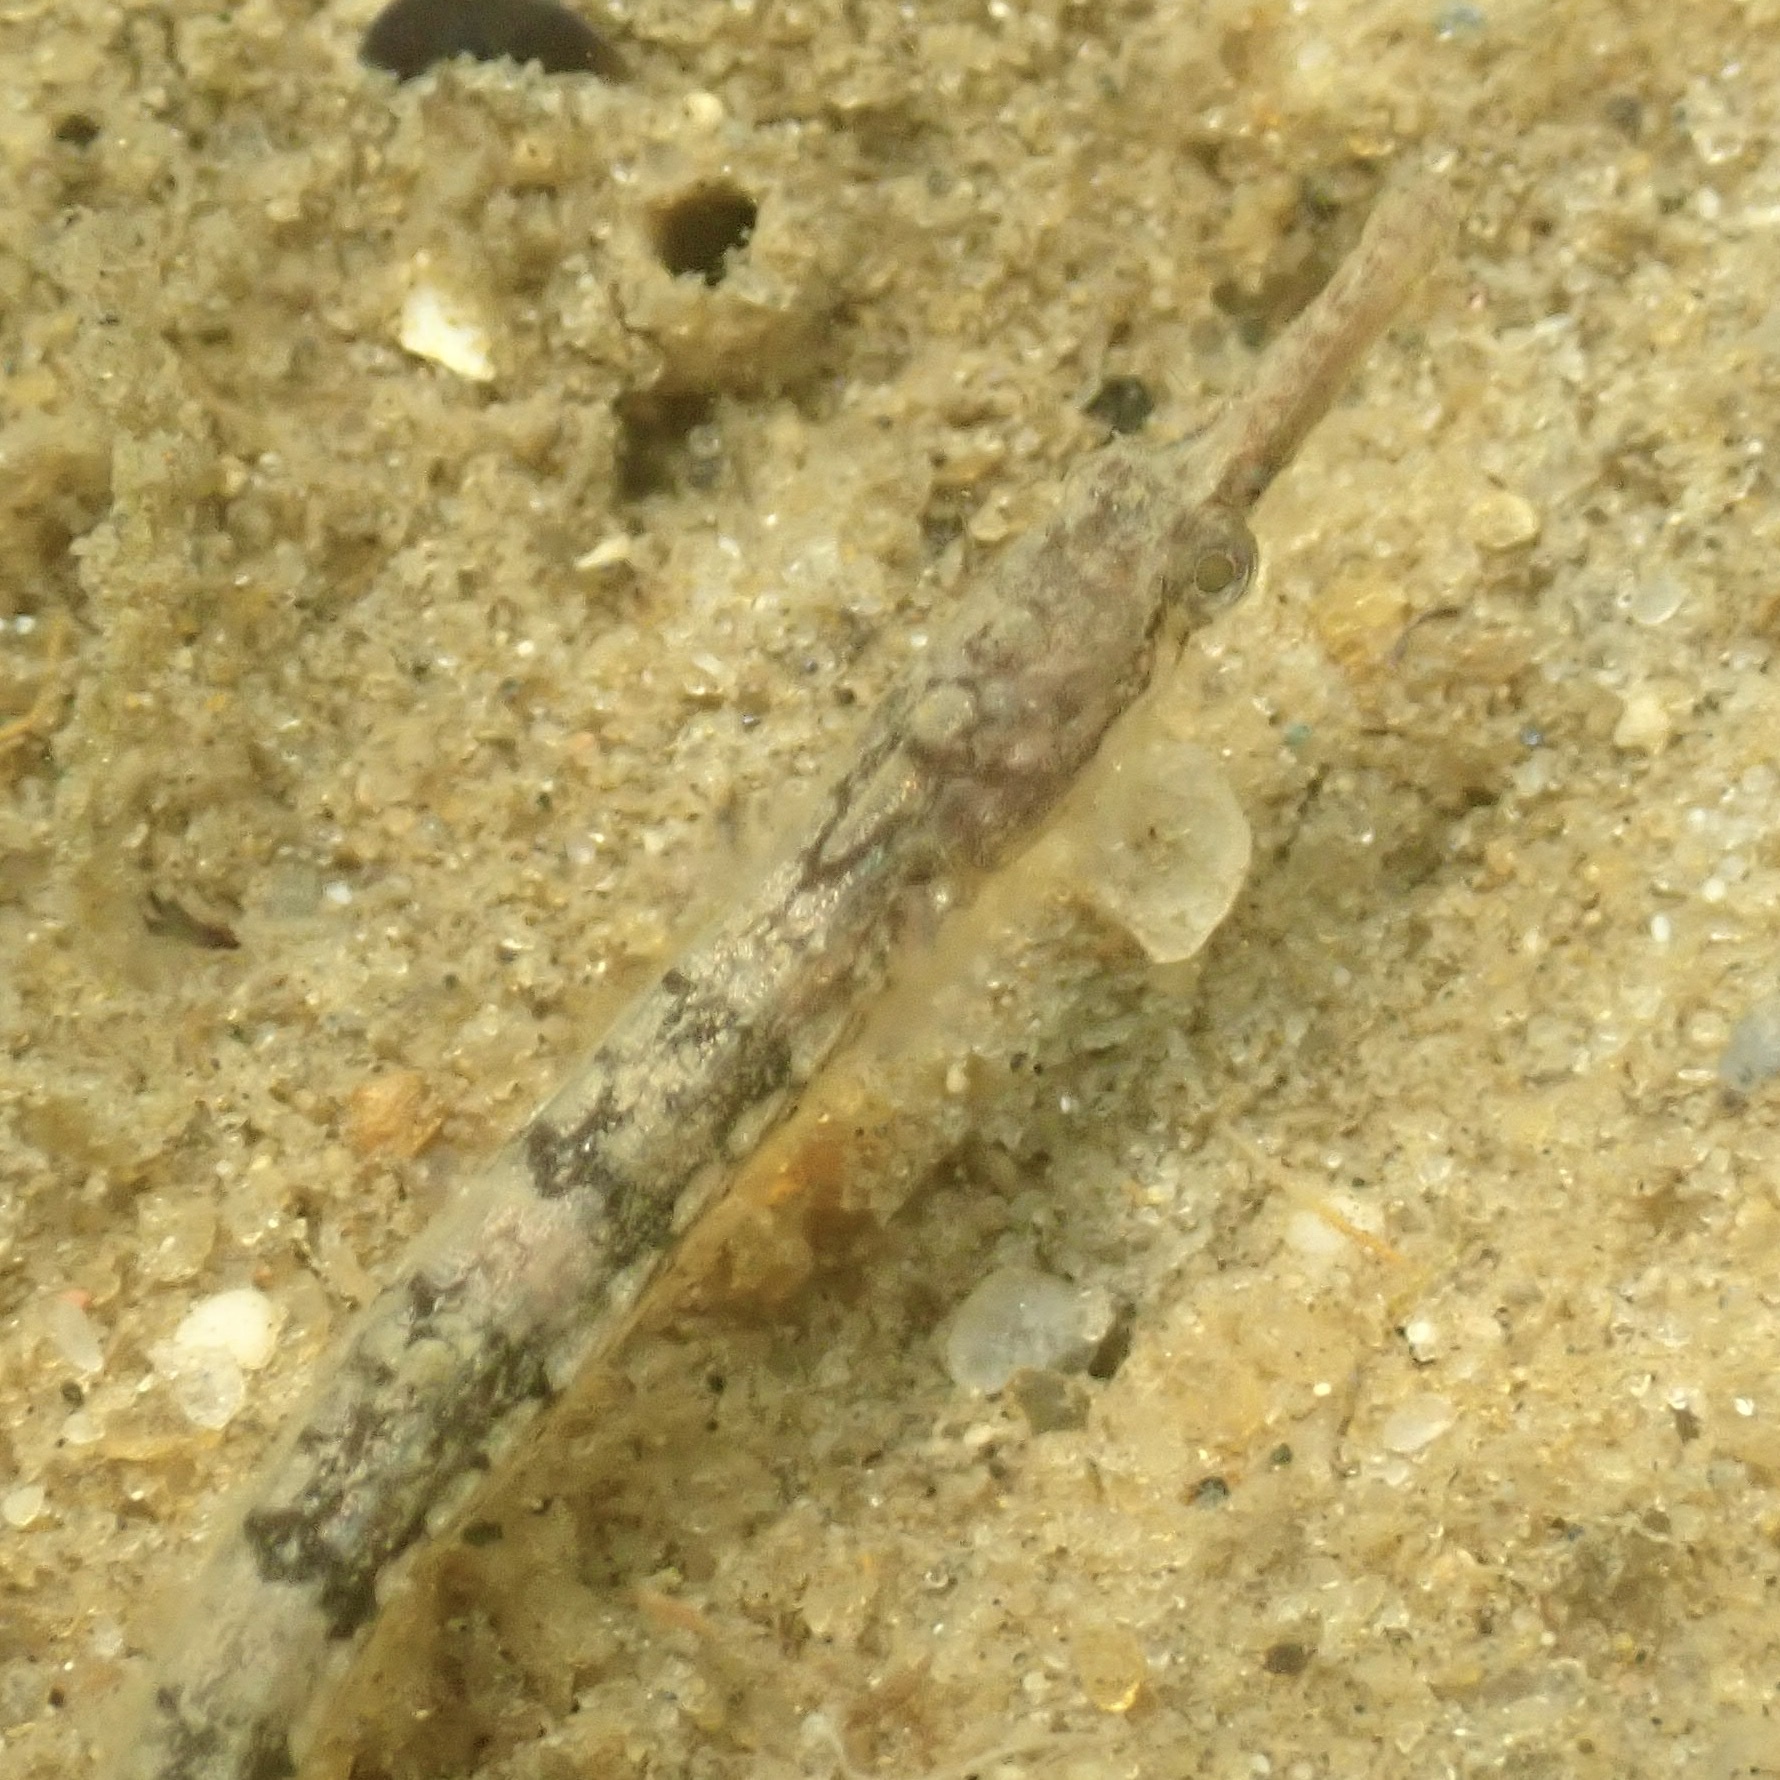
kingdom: Animalia
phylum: Chordata
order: Syngnathiformes
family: Syngnathidae
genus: Syngnathus
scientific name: Syngnathus fuscus
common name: Northern pipefish
